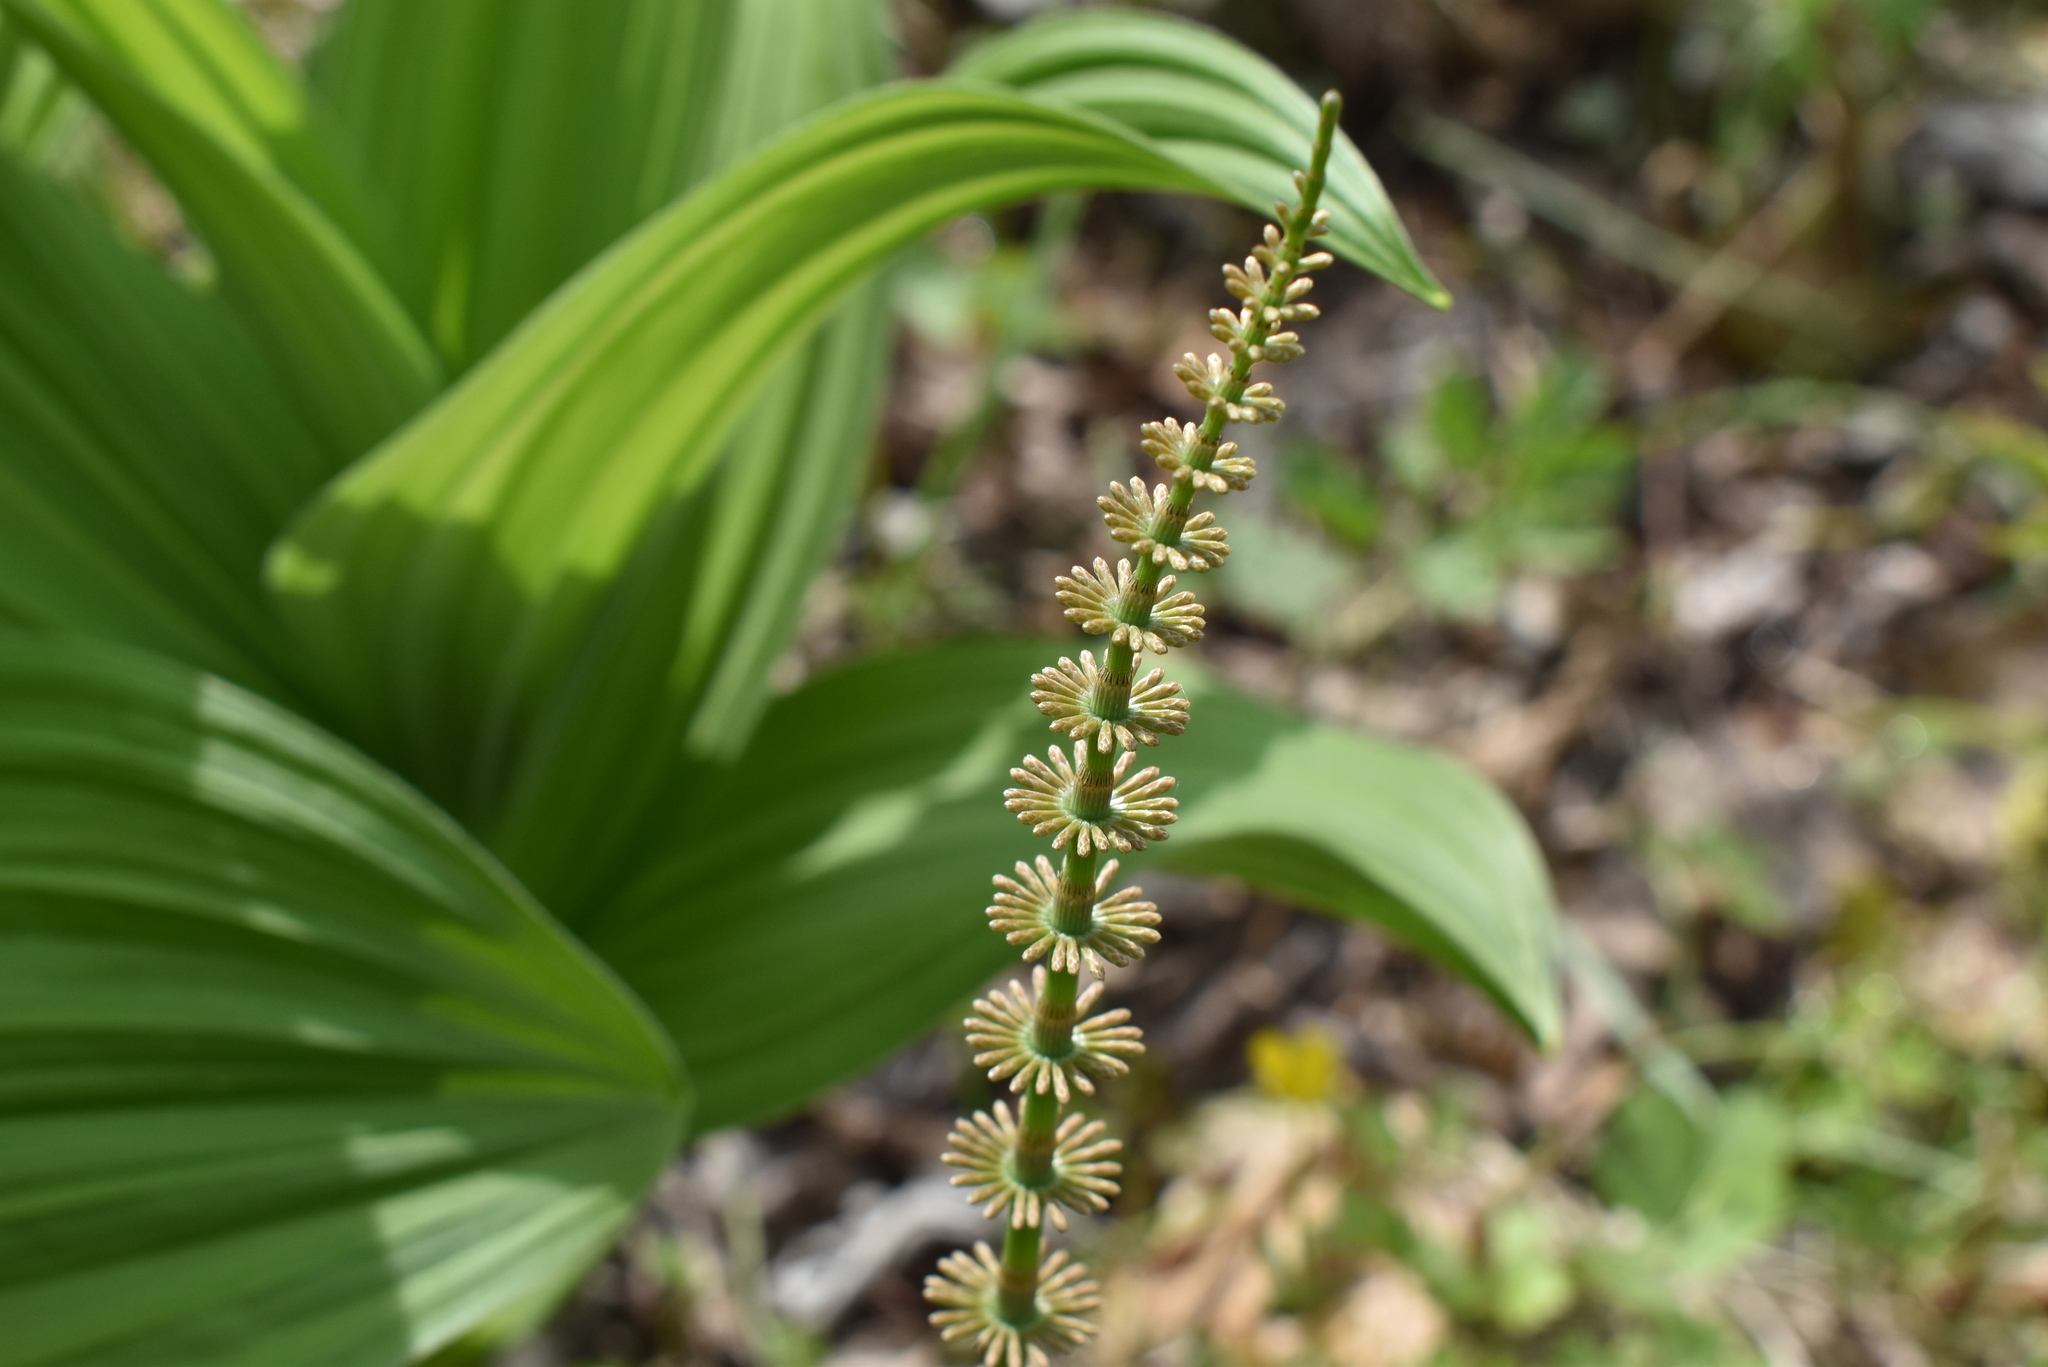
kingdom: Plantae
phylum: Tracheophyta
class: Polypodiopsida
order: Equisetales
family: Equisetaceae
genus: Equisetum
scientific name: Equisetum pratense
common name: Meadow horsetail
